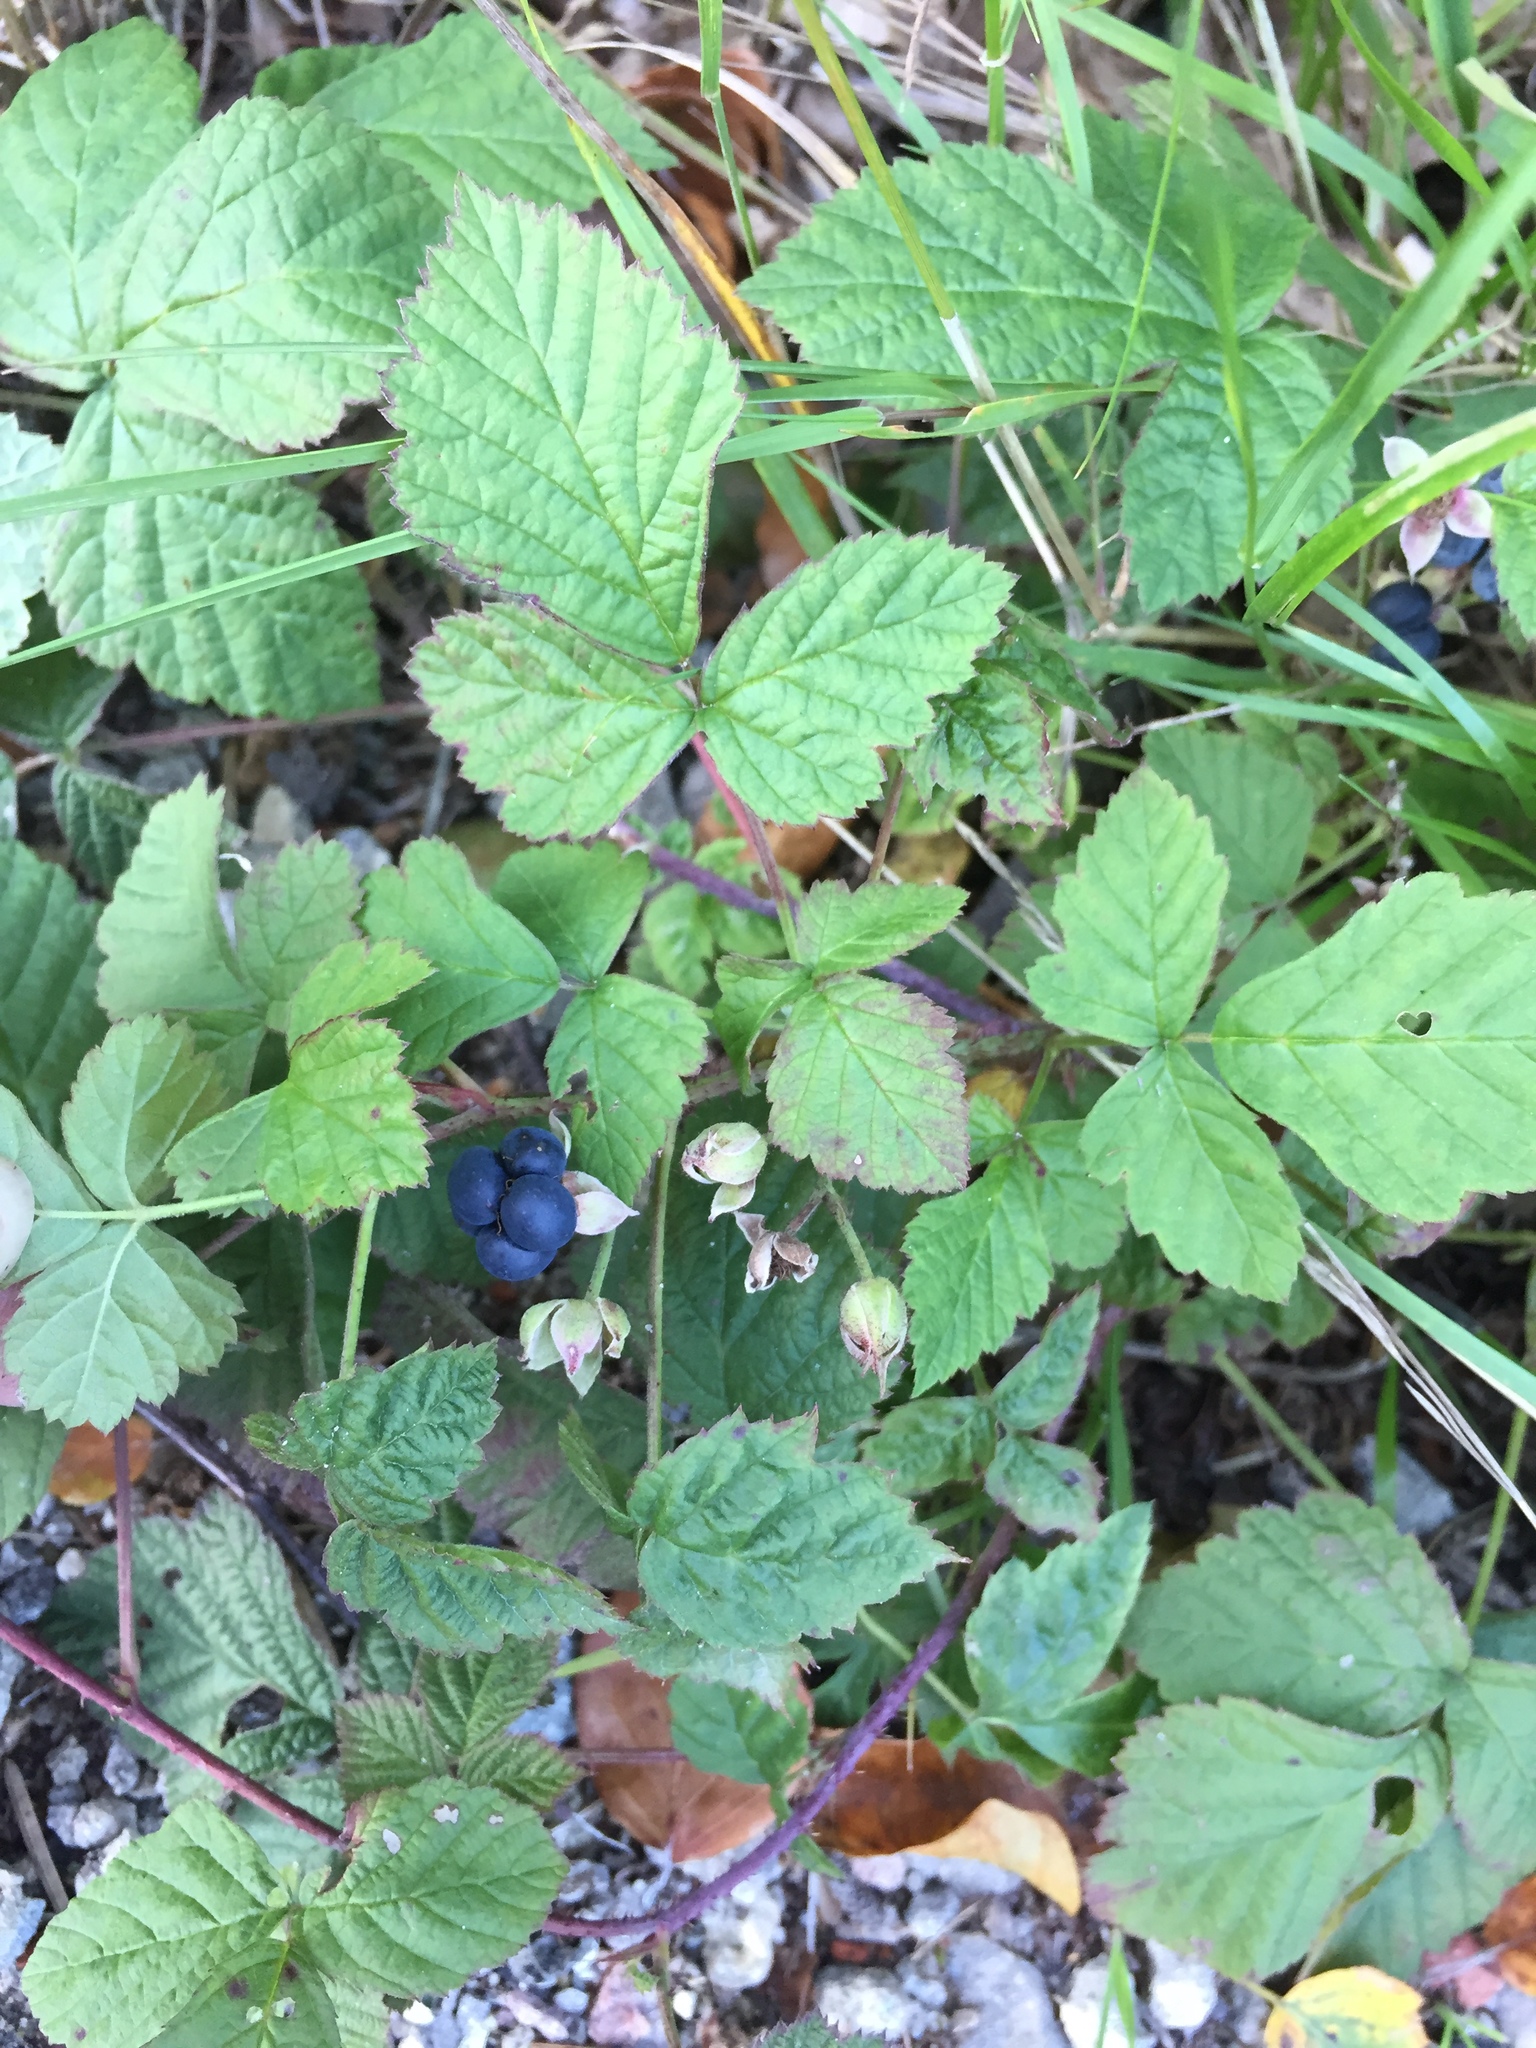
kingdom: Plantae
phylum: Tracheophyta
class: Magnoliopsida
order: Rosales
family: Rosaceae
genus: Rubus
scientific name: Rubus caesius
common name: Dewberry
